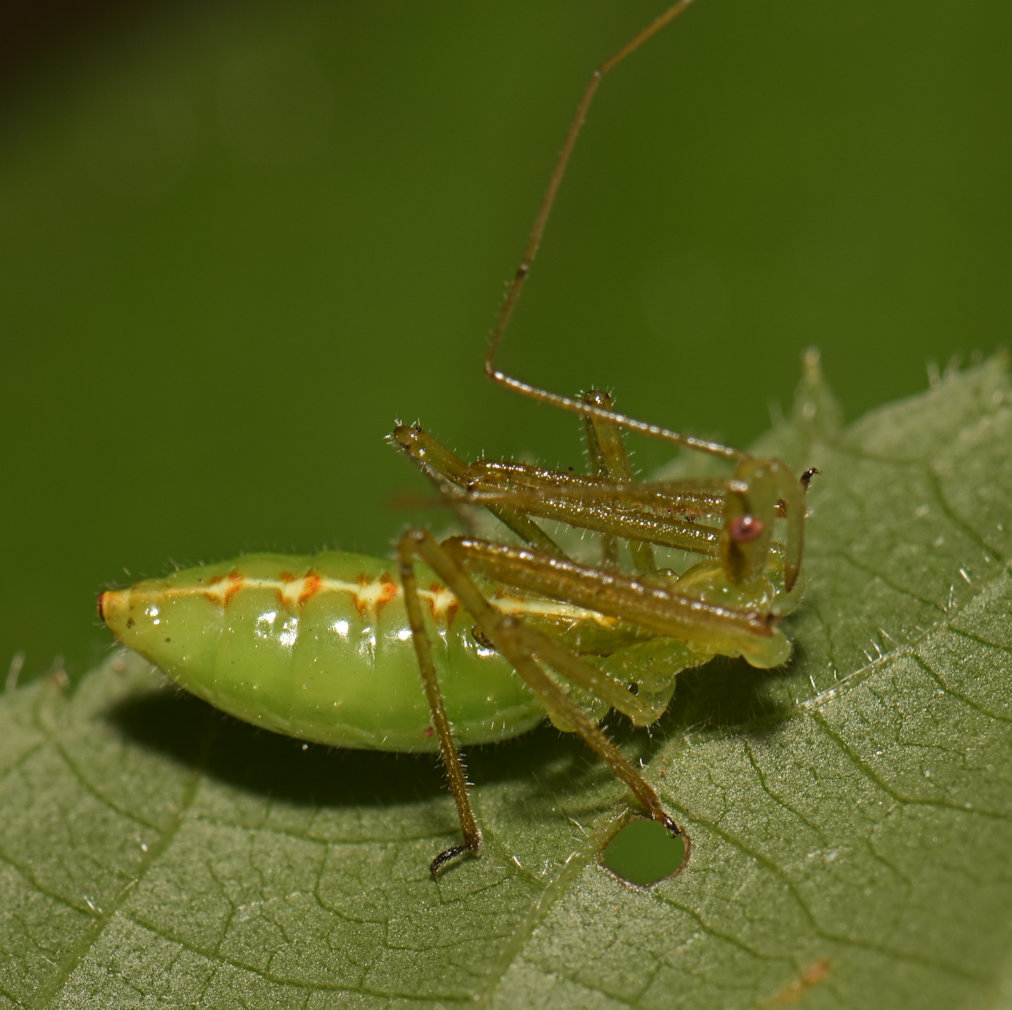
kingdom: Animalia
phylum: Arthropoda
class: Insecta
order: Hemiptera
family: Reduviidae
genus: Zelus
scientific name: Zelus luridus
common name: Pale green assassin bug
